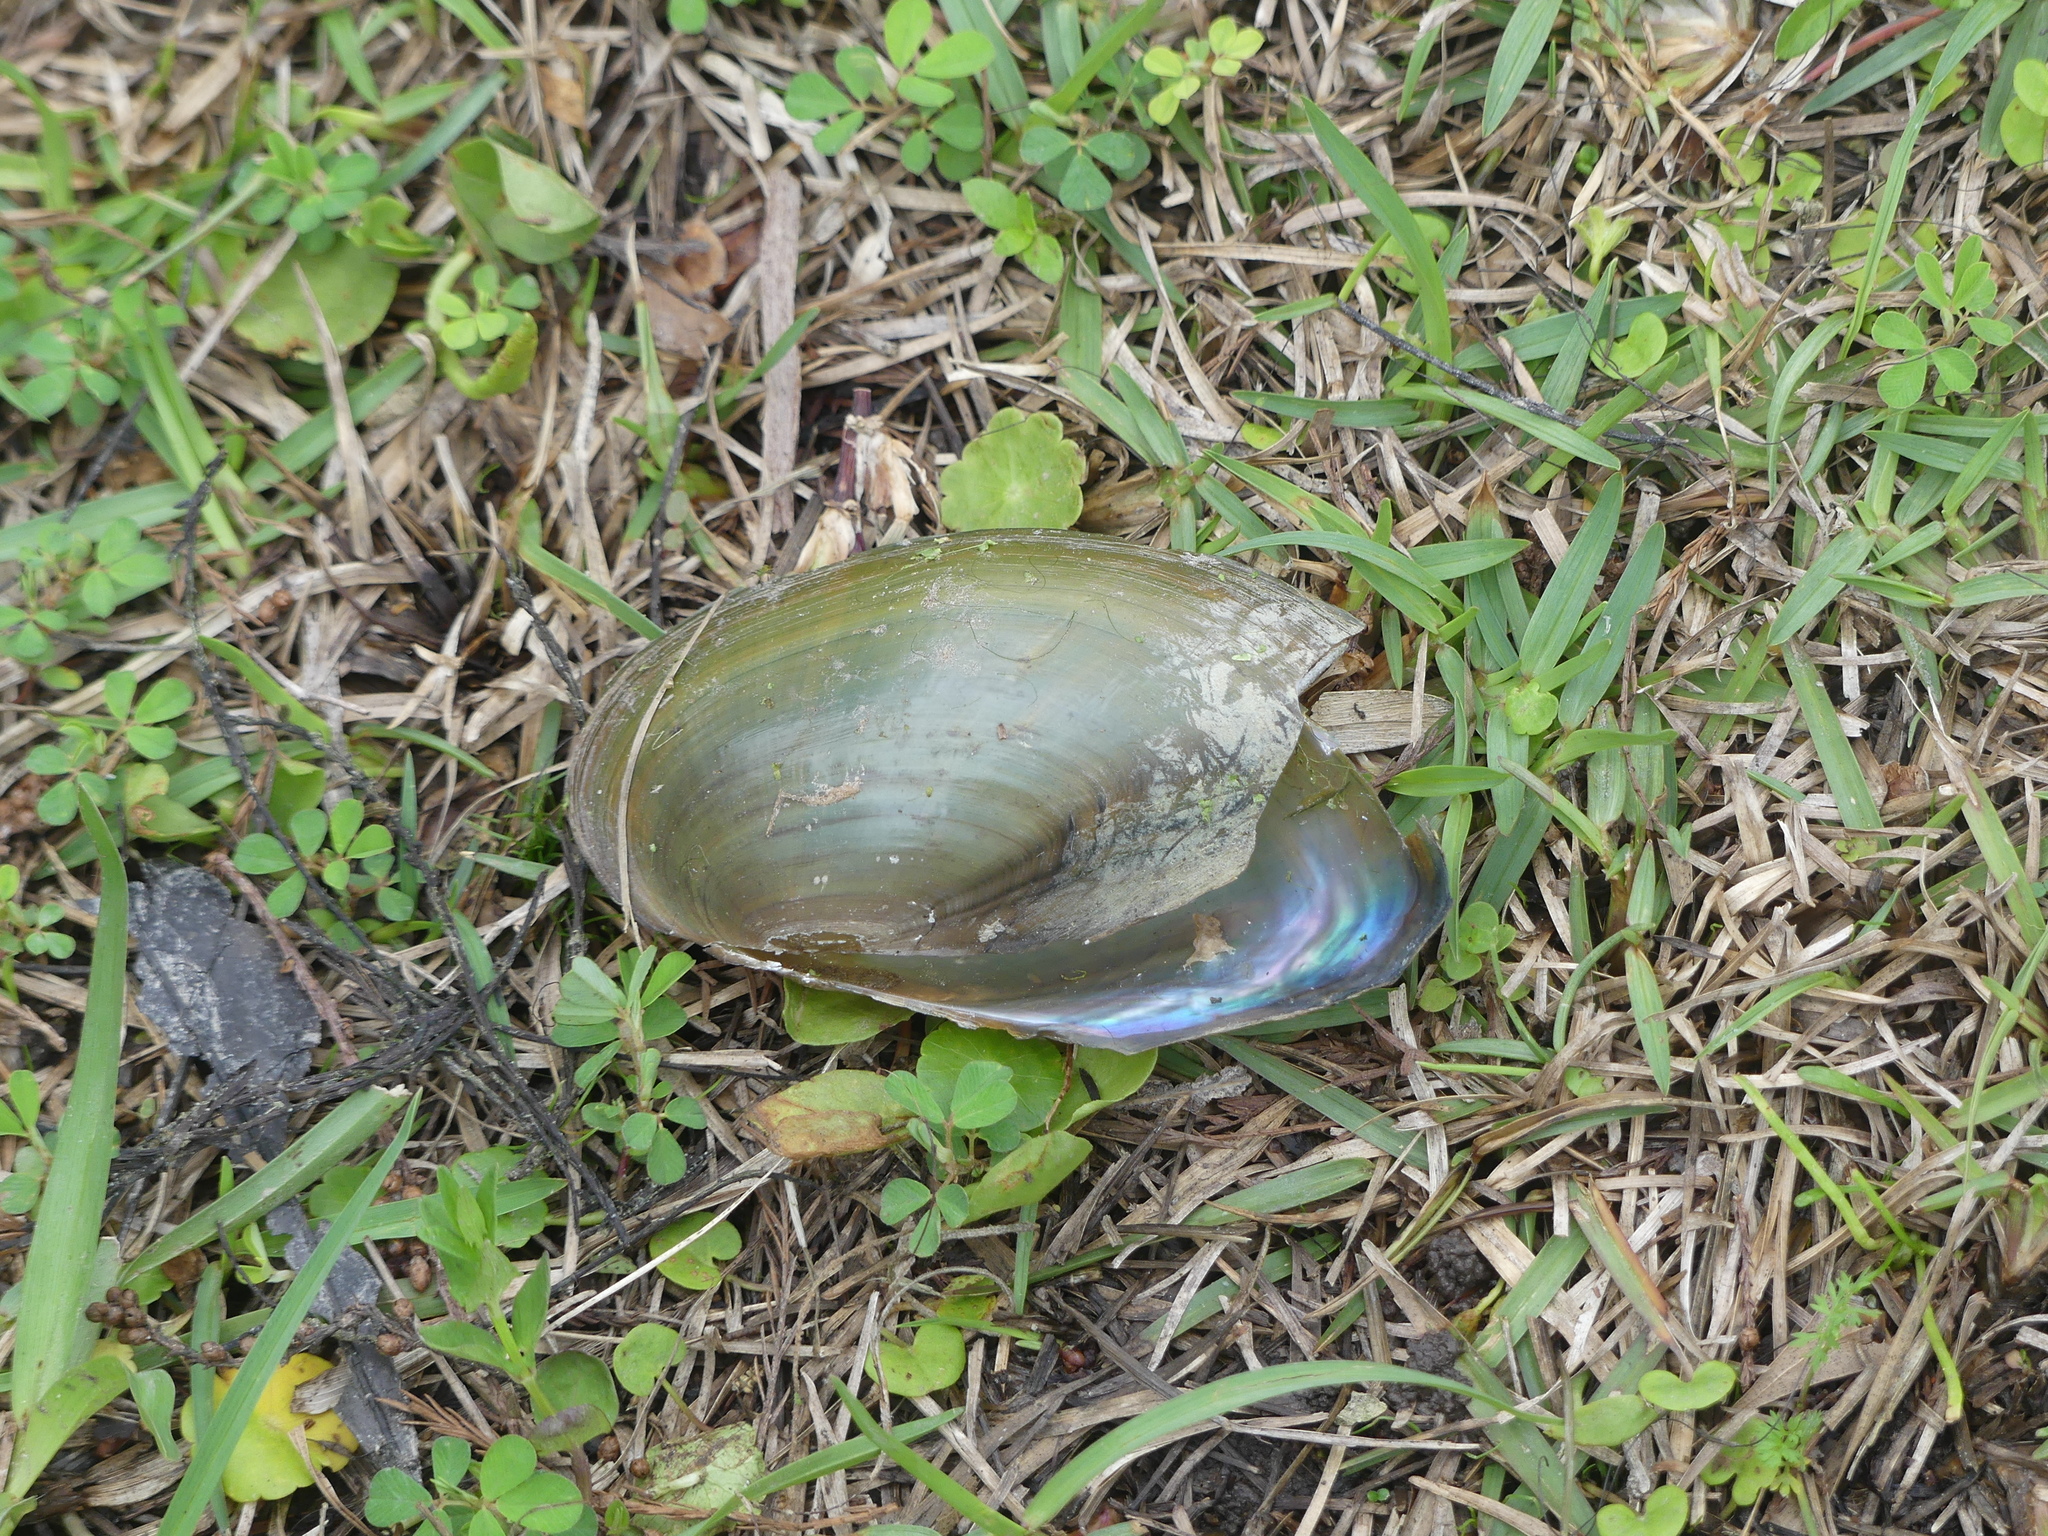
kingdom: Animalia
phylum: Mollusca
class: Bivalvia
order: Unionida
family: Unionidae
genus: Utterbackia
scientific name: Utterbackia imbecillis
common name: Paper pondshell
